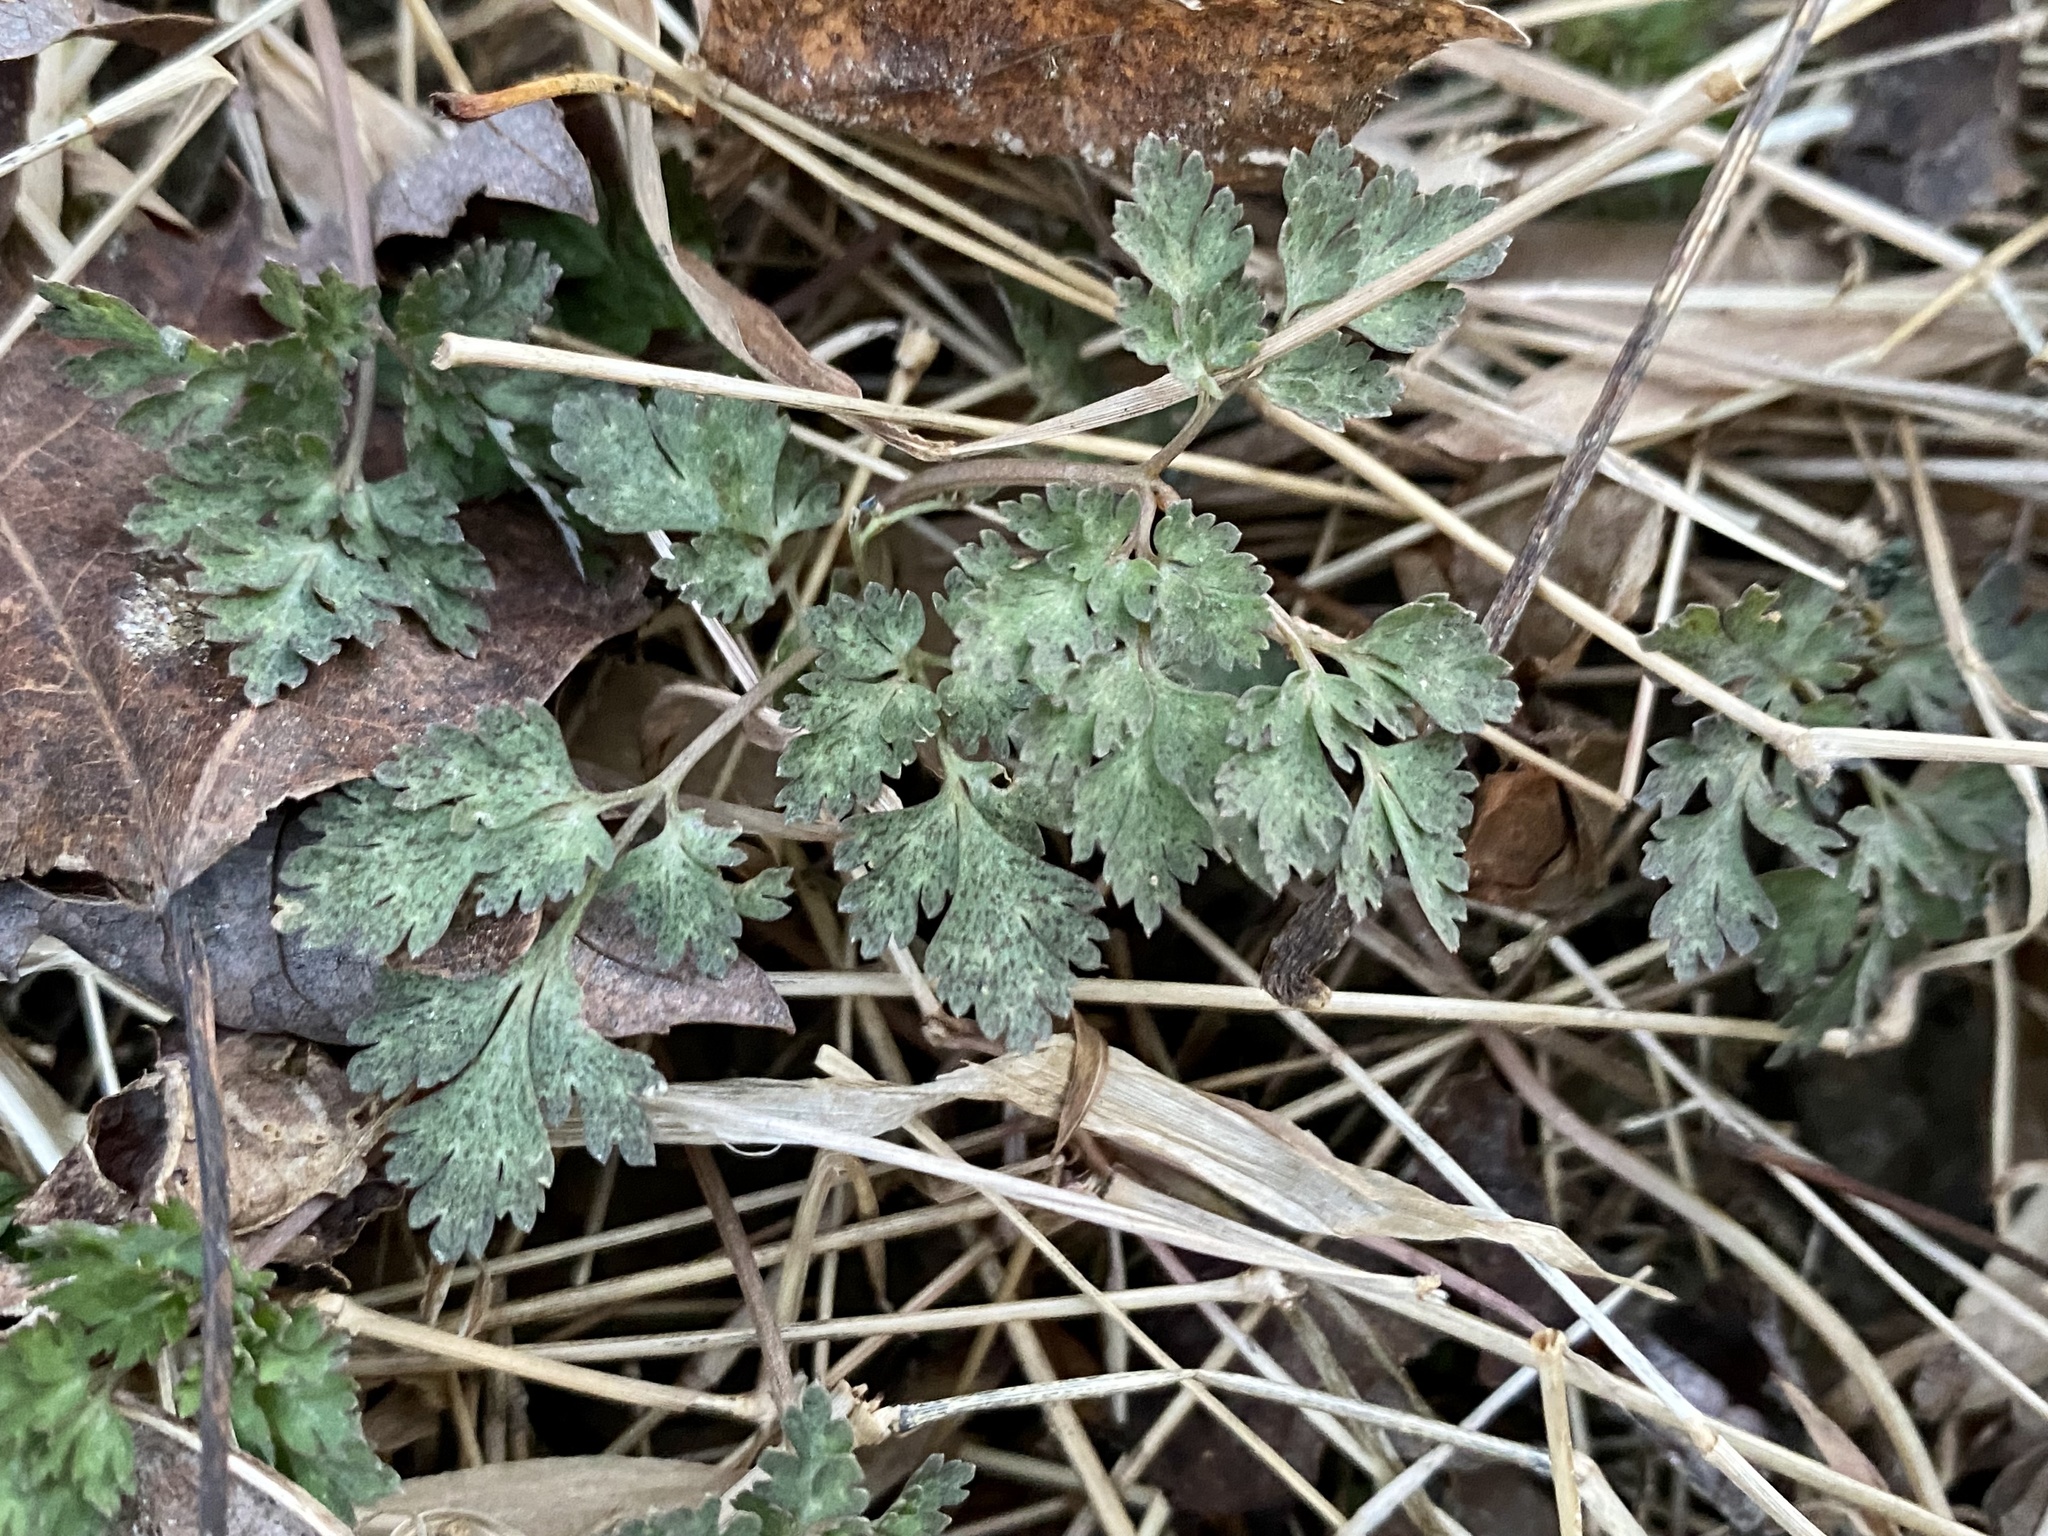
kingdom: Plantae
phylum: Tracheophyta
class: Magnoliopsida
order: Ranunculales
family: Papaveraceae
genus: Corydalis
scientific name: Corydalis incisa
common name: Incised fumewort
